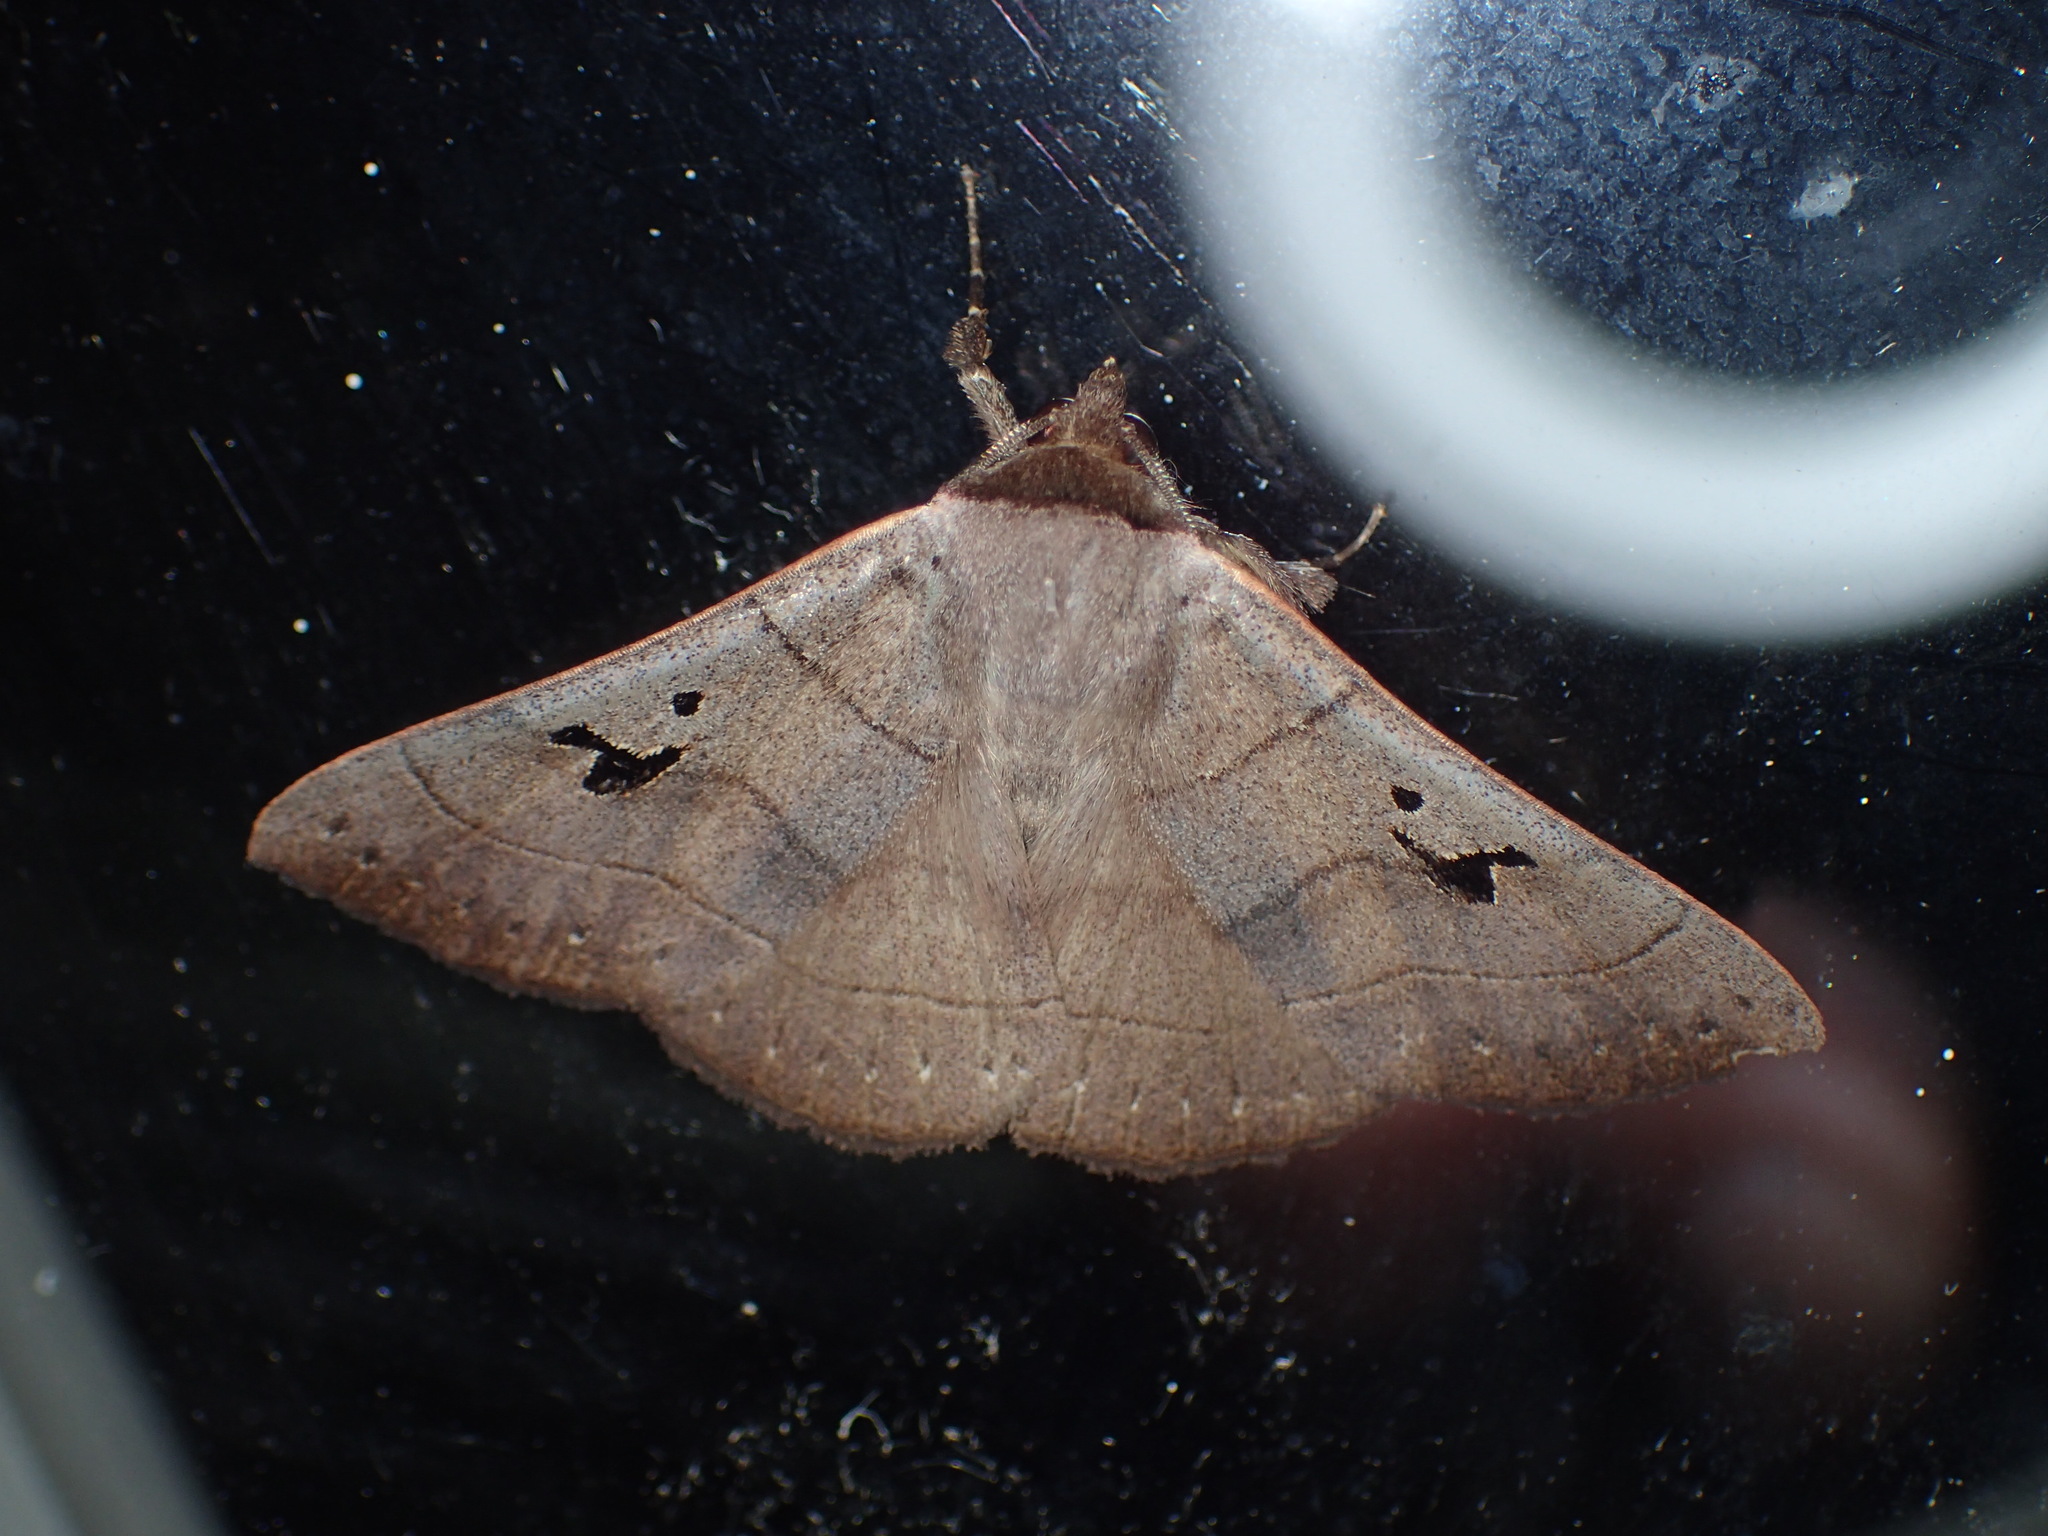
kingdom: Animalia
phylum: Arthropoda
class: Insecta
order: Lepidoptera
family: Erebidae
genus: Panopoda
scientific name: Panopoda carneicosta
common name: Brown panopoda moth
